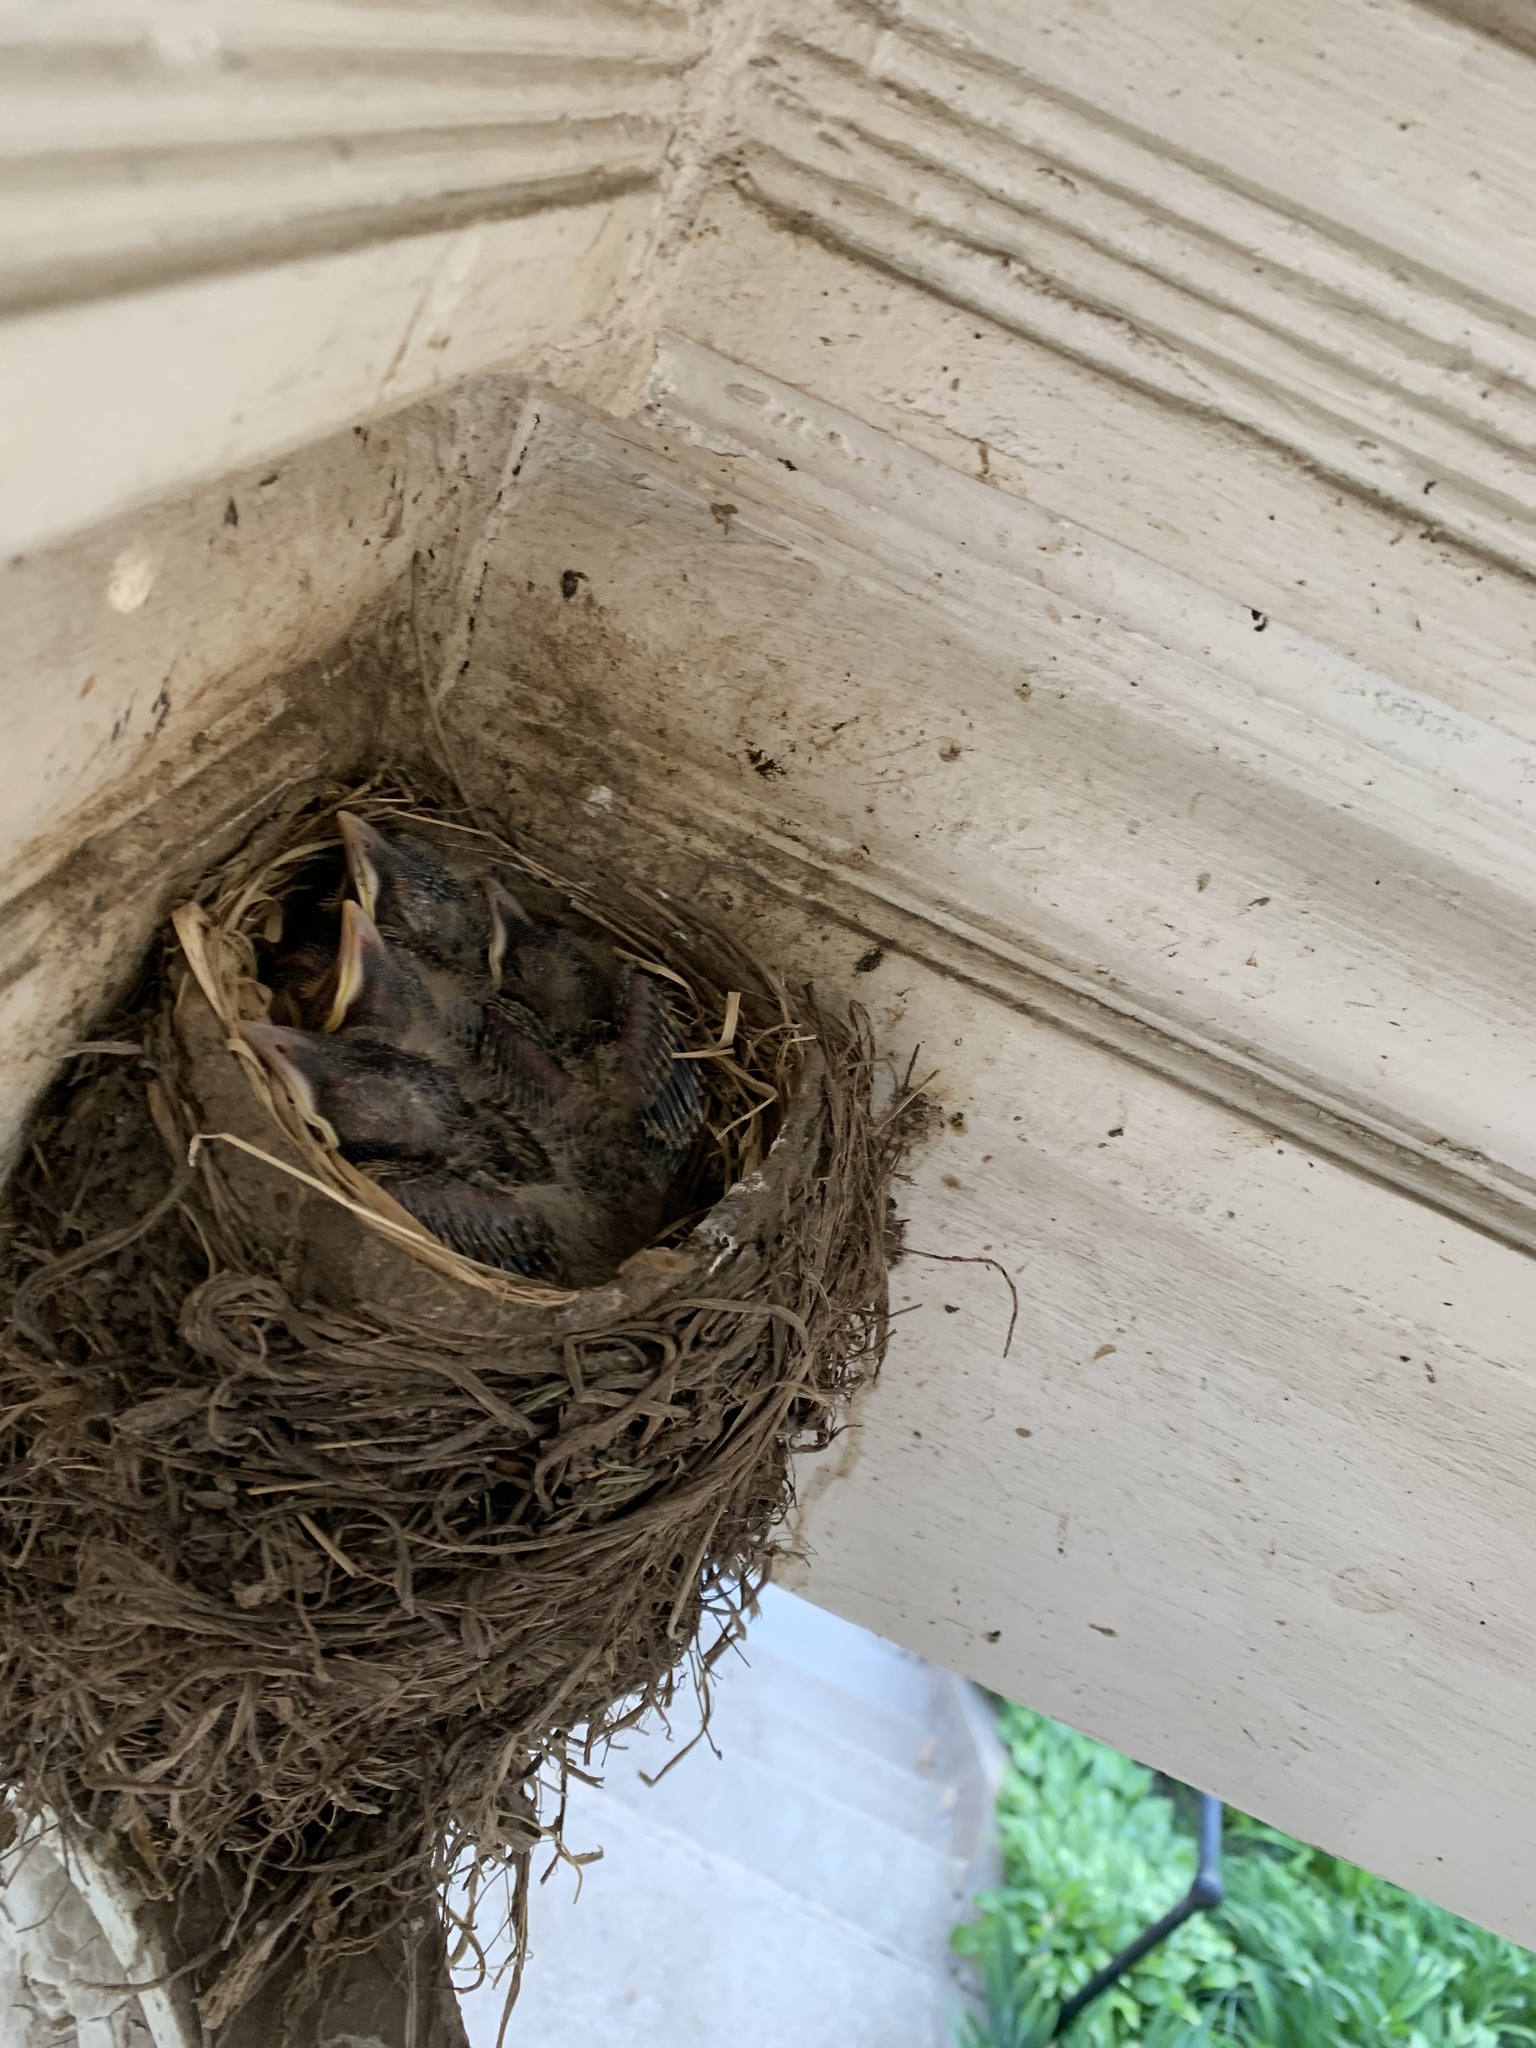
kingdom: Animalia
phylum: Chordata
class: Aves
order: Passeriformes
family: Turdidae
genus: Turdus
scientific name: Turdus migratorius
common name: American robin
